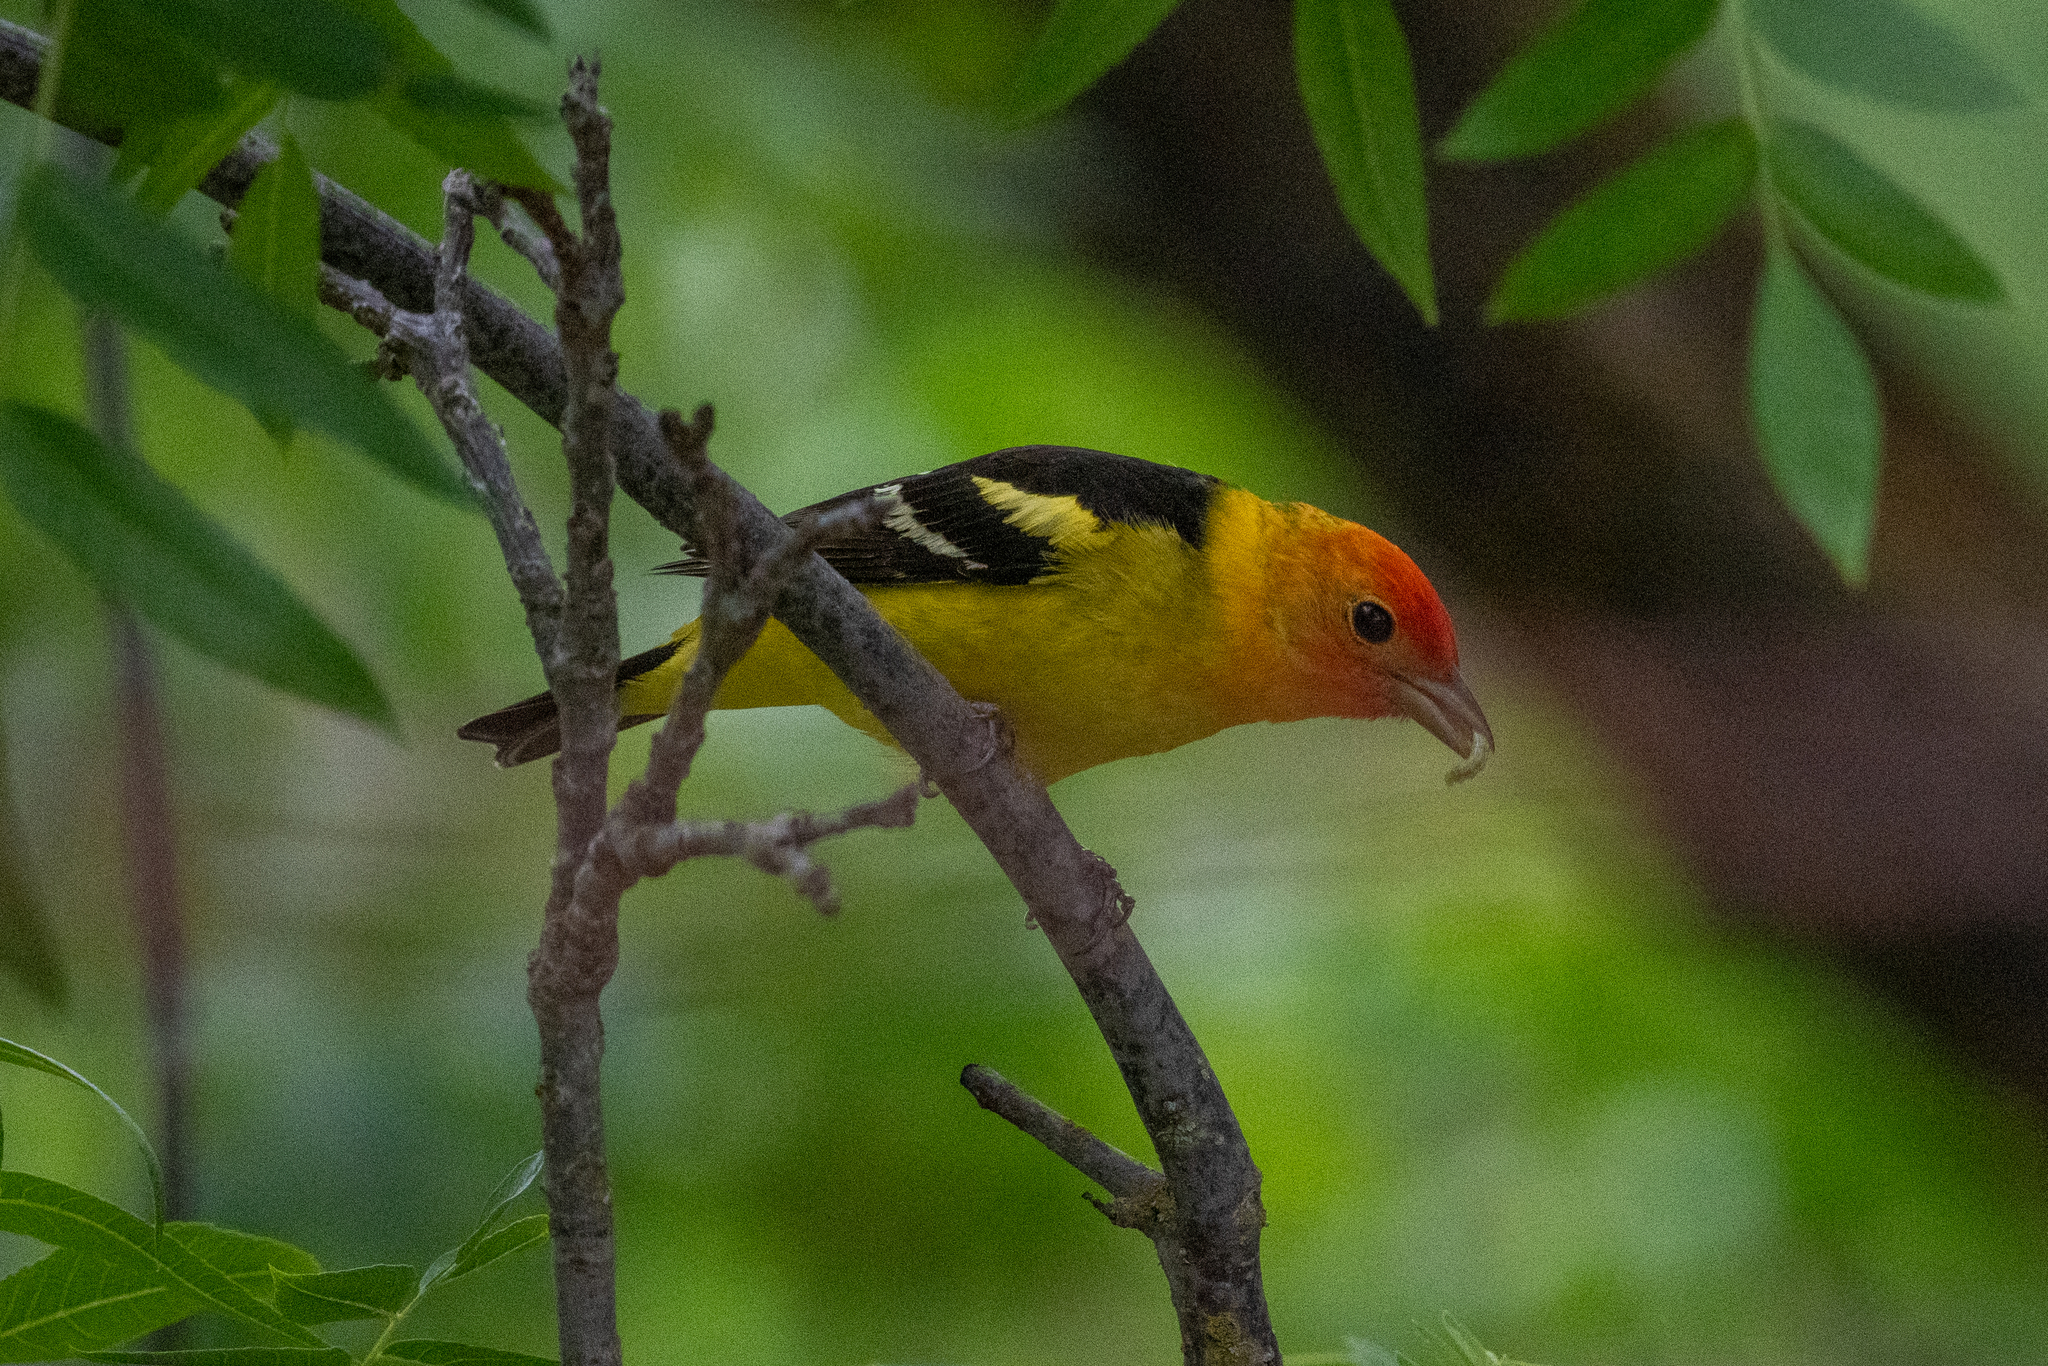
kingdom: Animalia
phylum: Chordata
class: Aves
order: Passeriformes
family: Cardinalidae
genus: Piranga
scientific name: Piranga ludoviciana
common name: Western tanager
